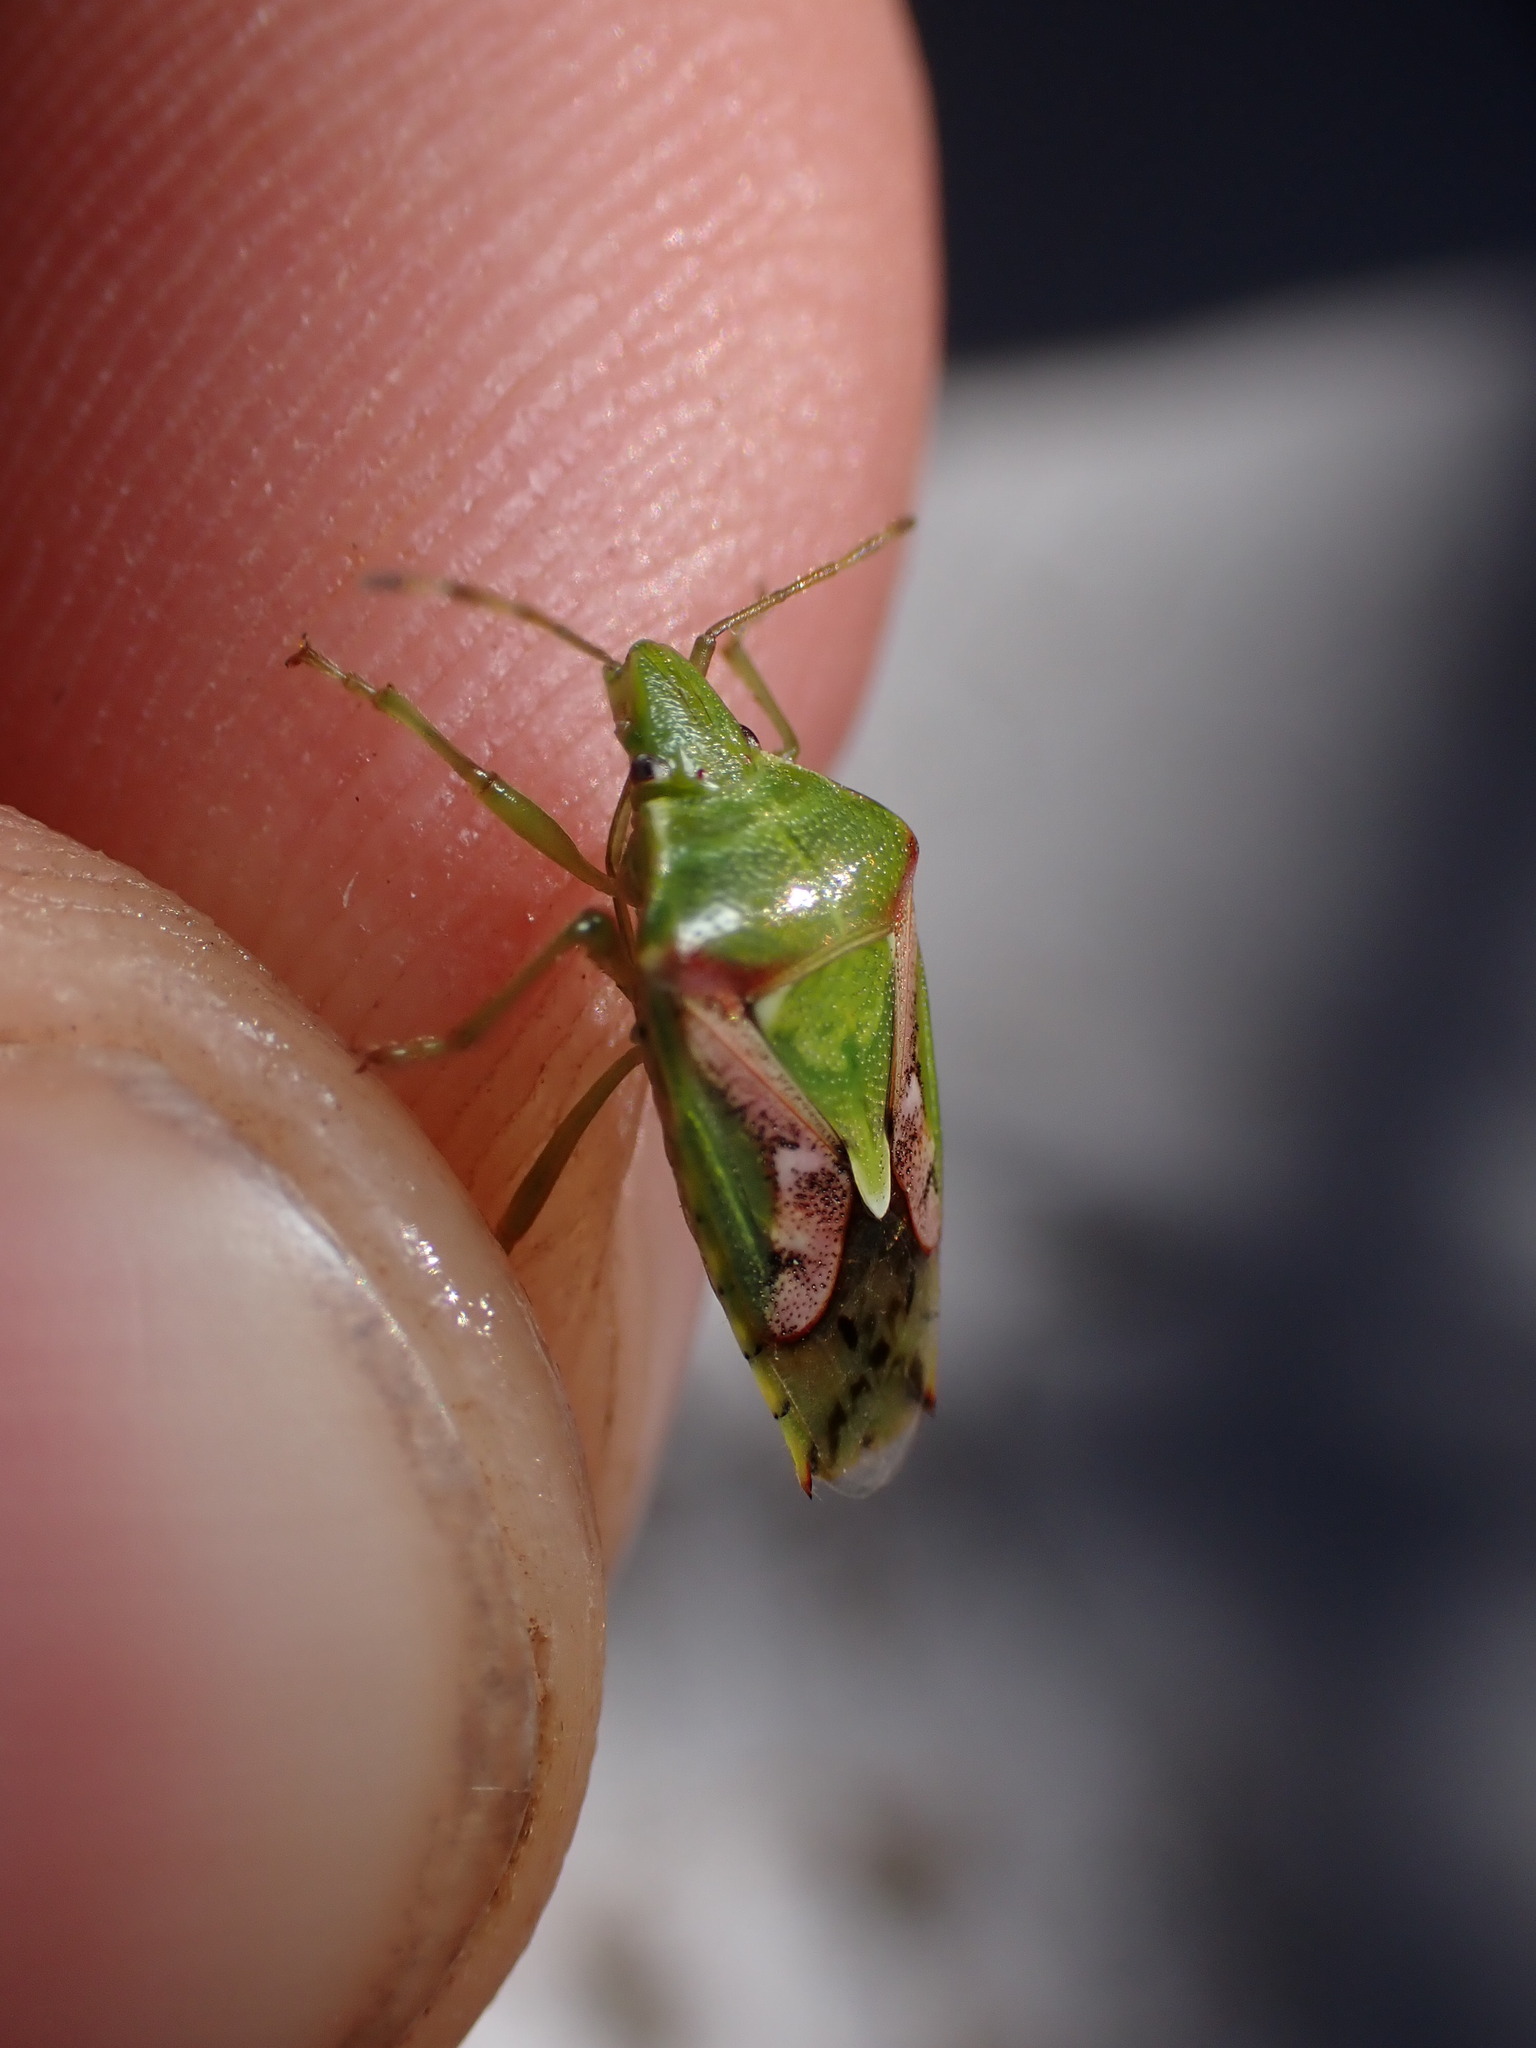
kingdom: Animalia
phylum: Arthropoda
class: Insecta
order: Hemiptera
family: Acanthosomatidae
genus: Cyphostethus
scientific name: Cyphostethus tristriatus
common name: Juniper shieldbug
